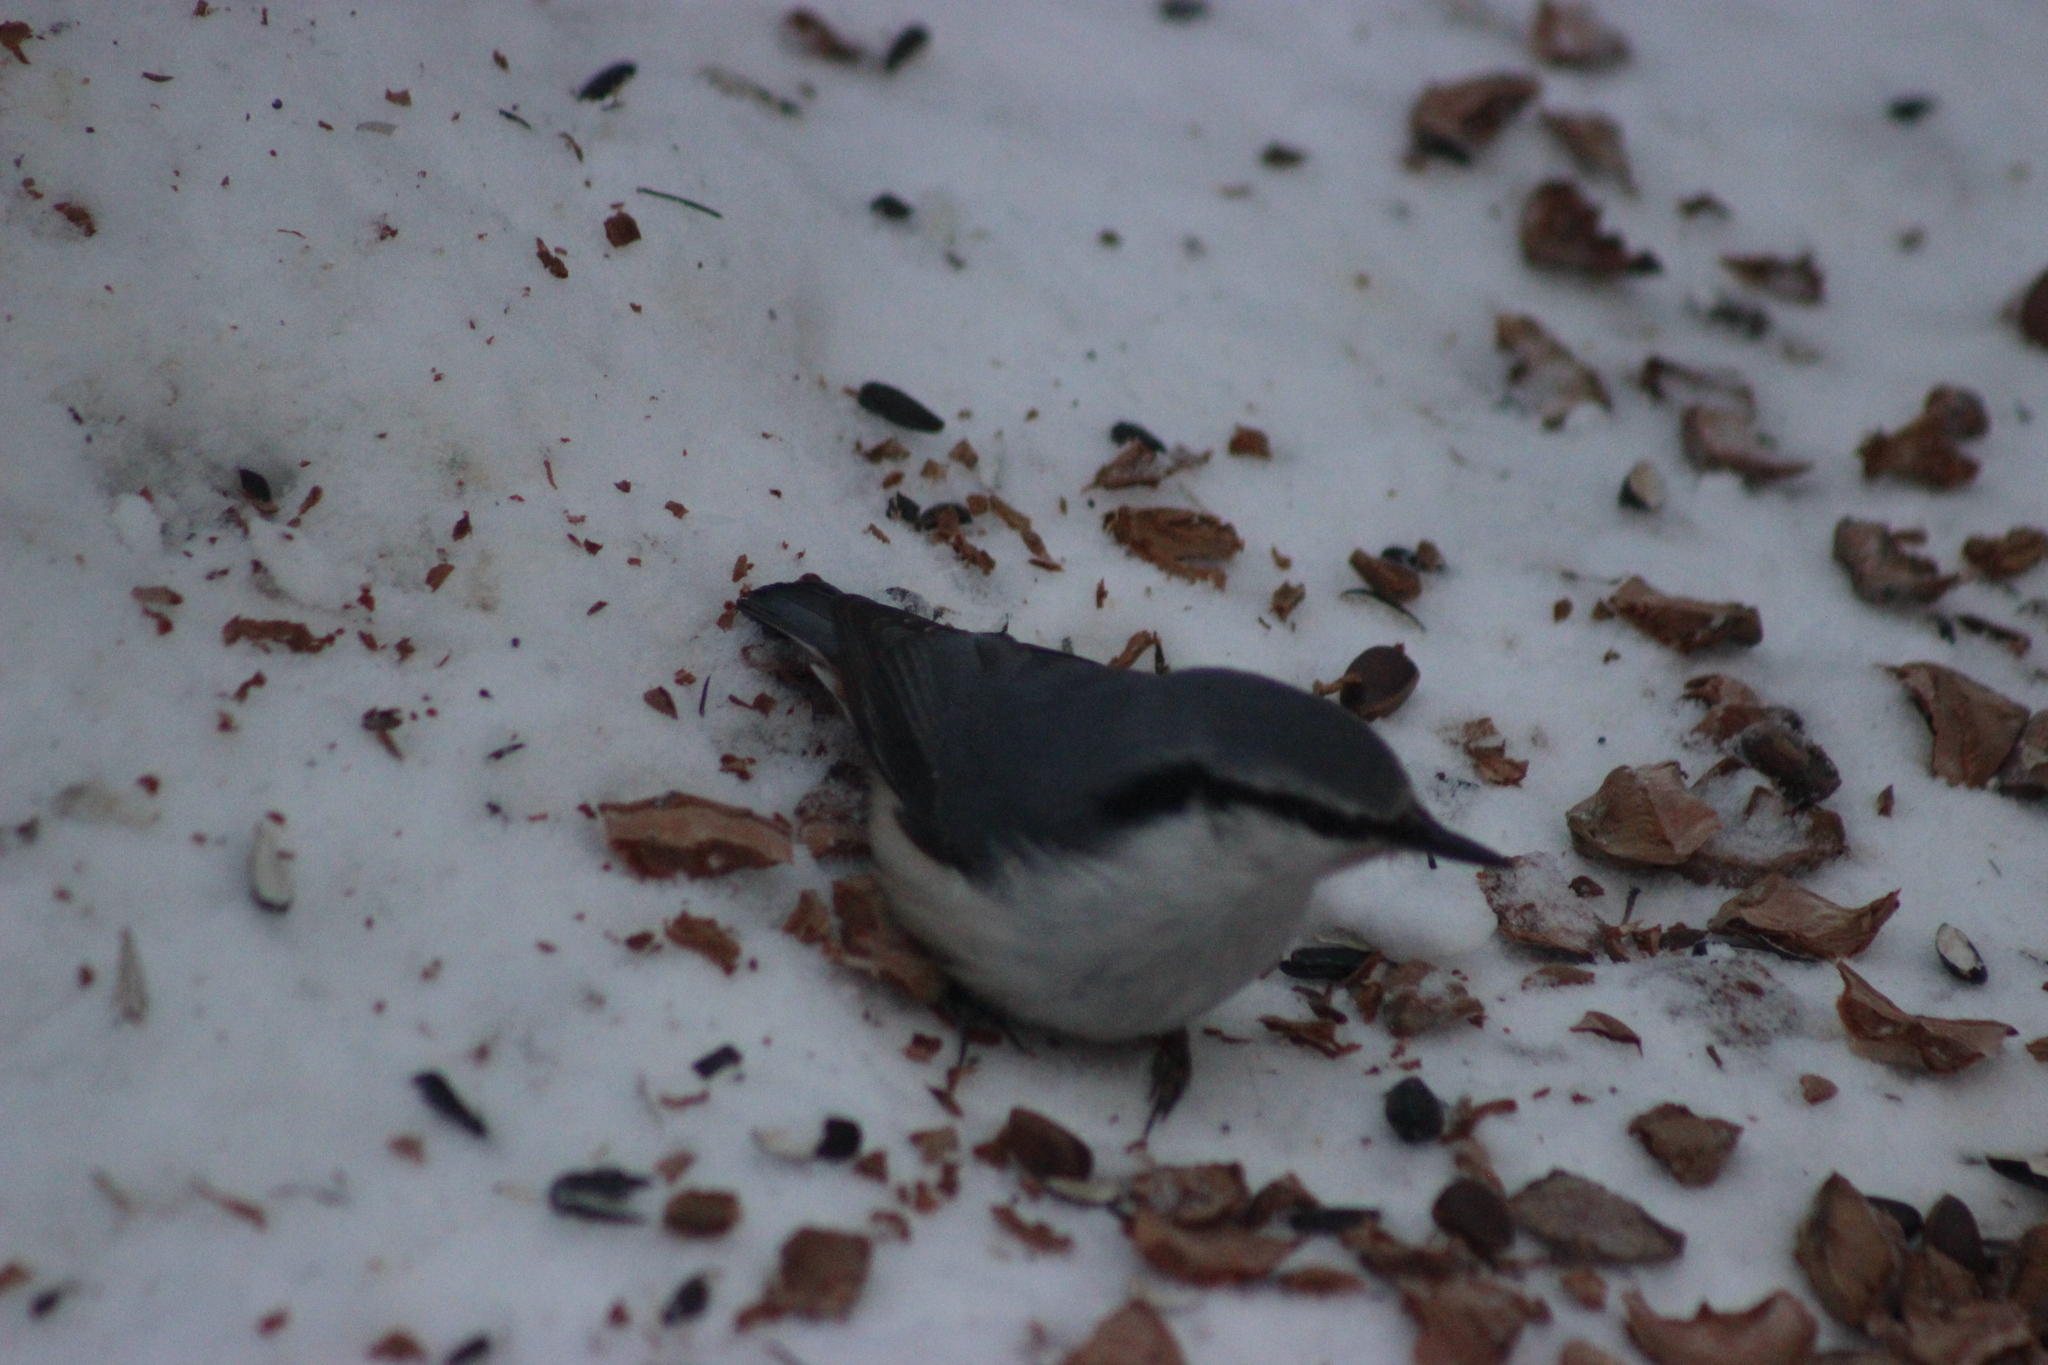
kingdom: Animalia
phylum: Chordata
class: Aves
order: Passeriformes
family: Sittidae
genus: Sitta
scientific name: Sitta europaea
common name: Eurasian nuthatch
